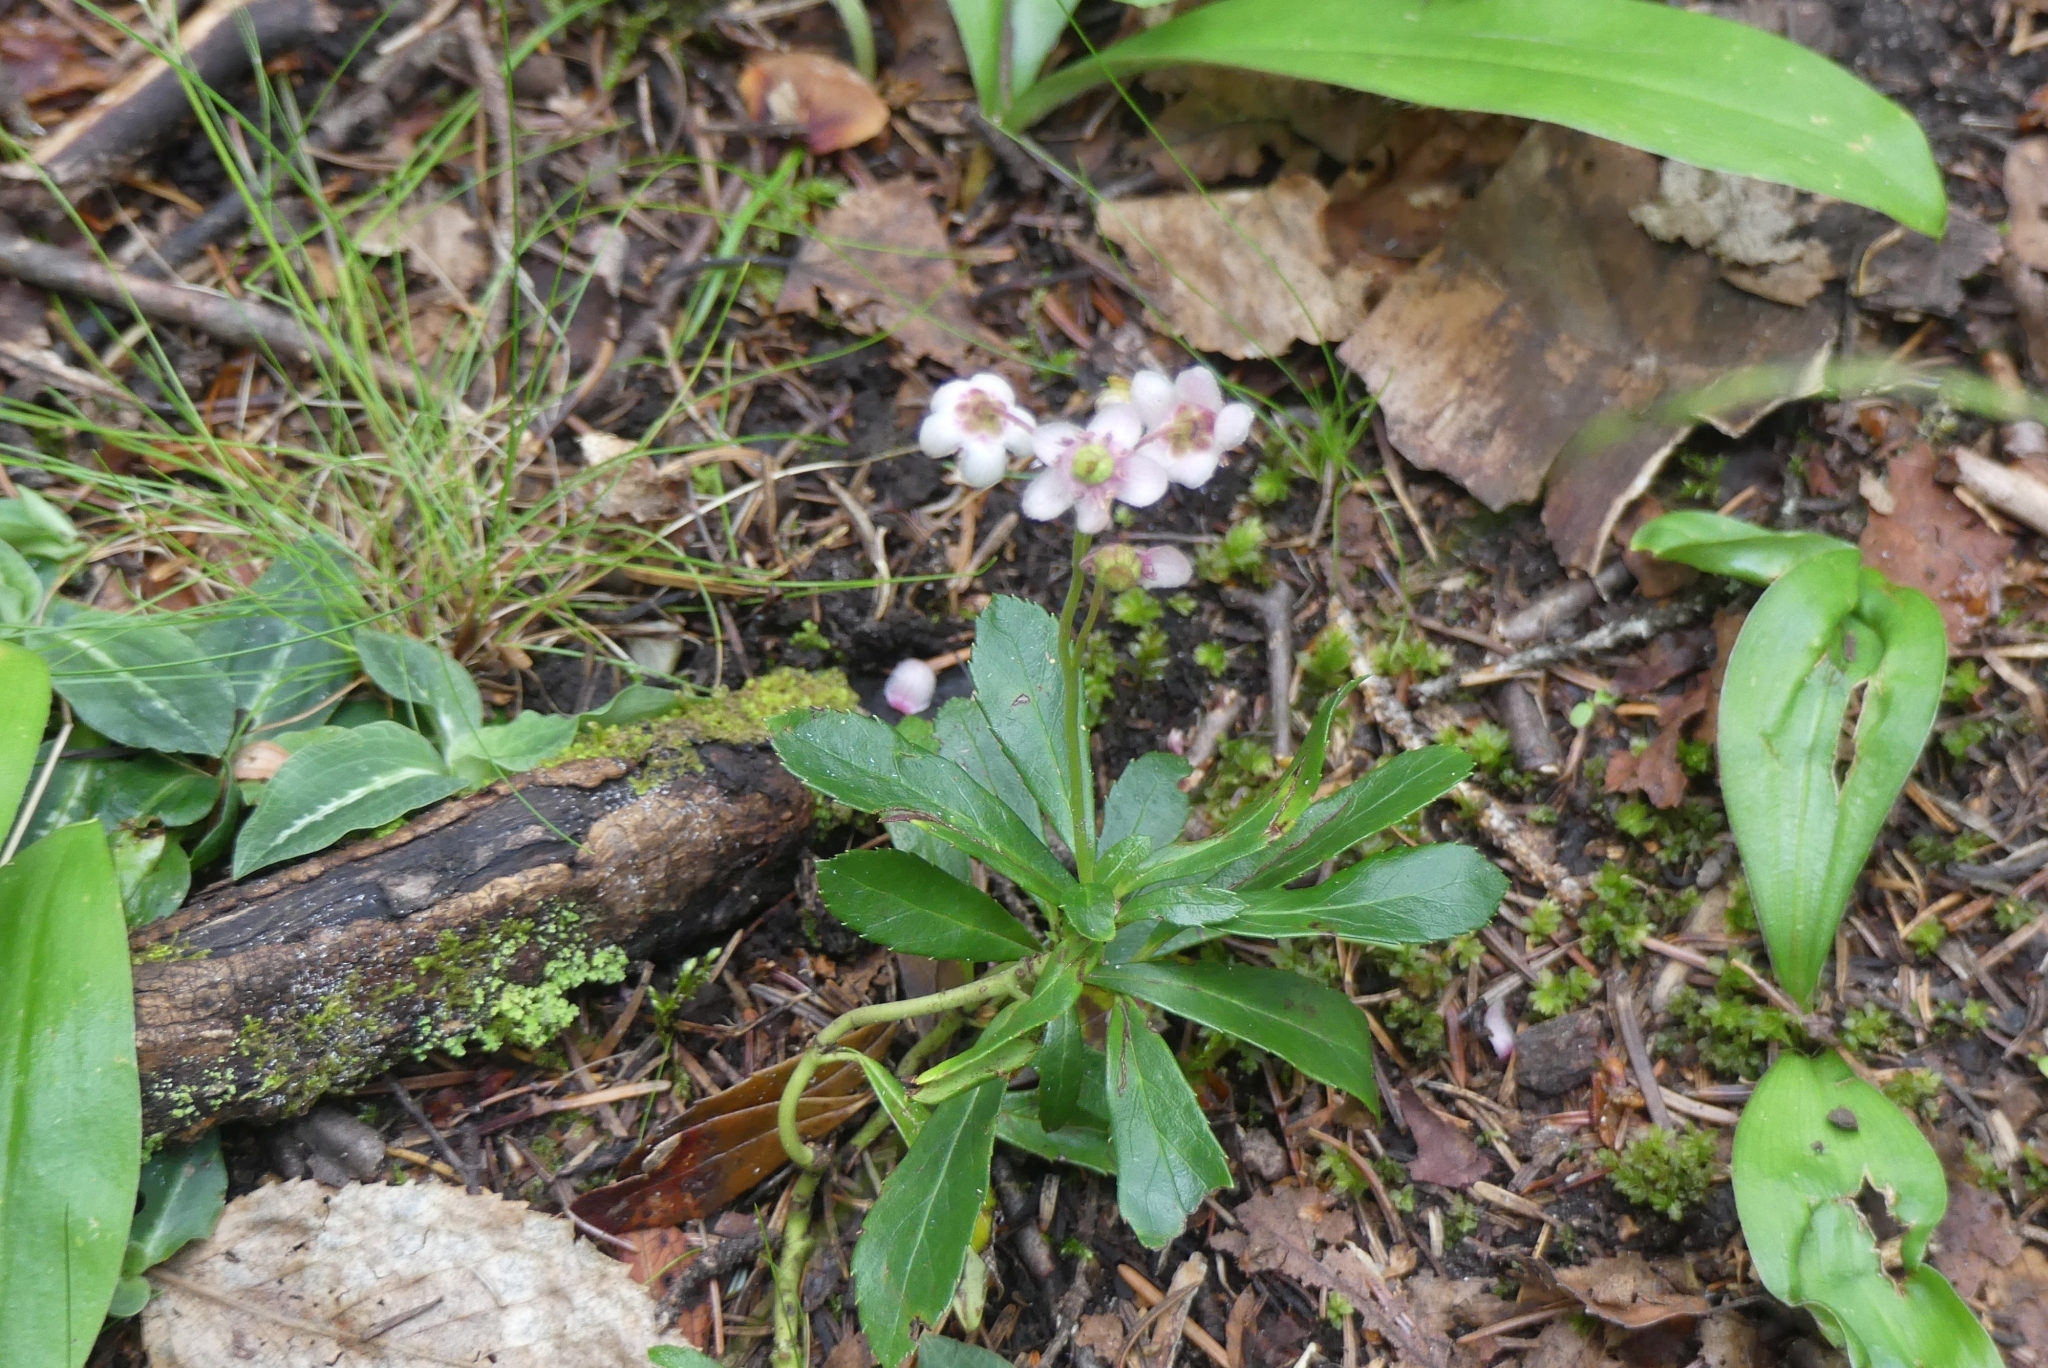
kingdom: Plantae
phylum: Tracheophyta
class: Magnoliopsida
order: Ericales
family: Ericaceae
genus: Chimaphila
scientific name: Chimaphila umbellata
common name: Pipsissewa
